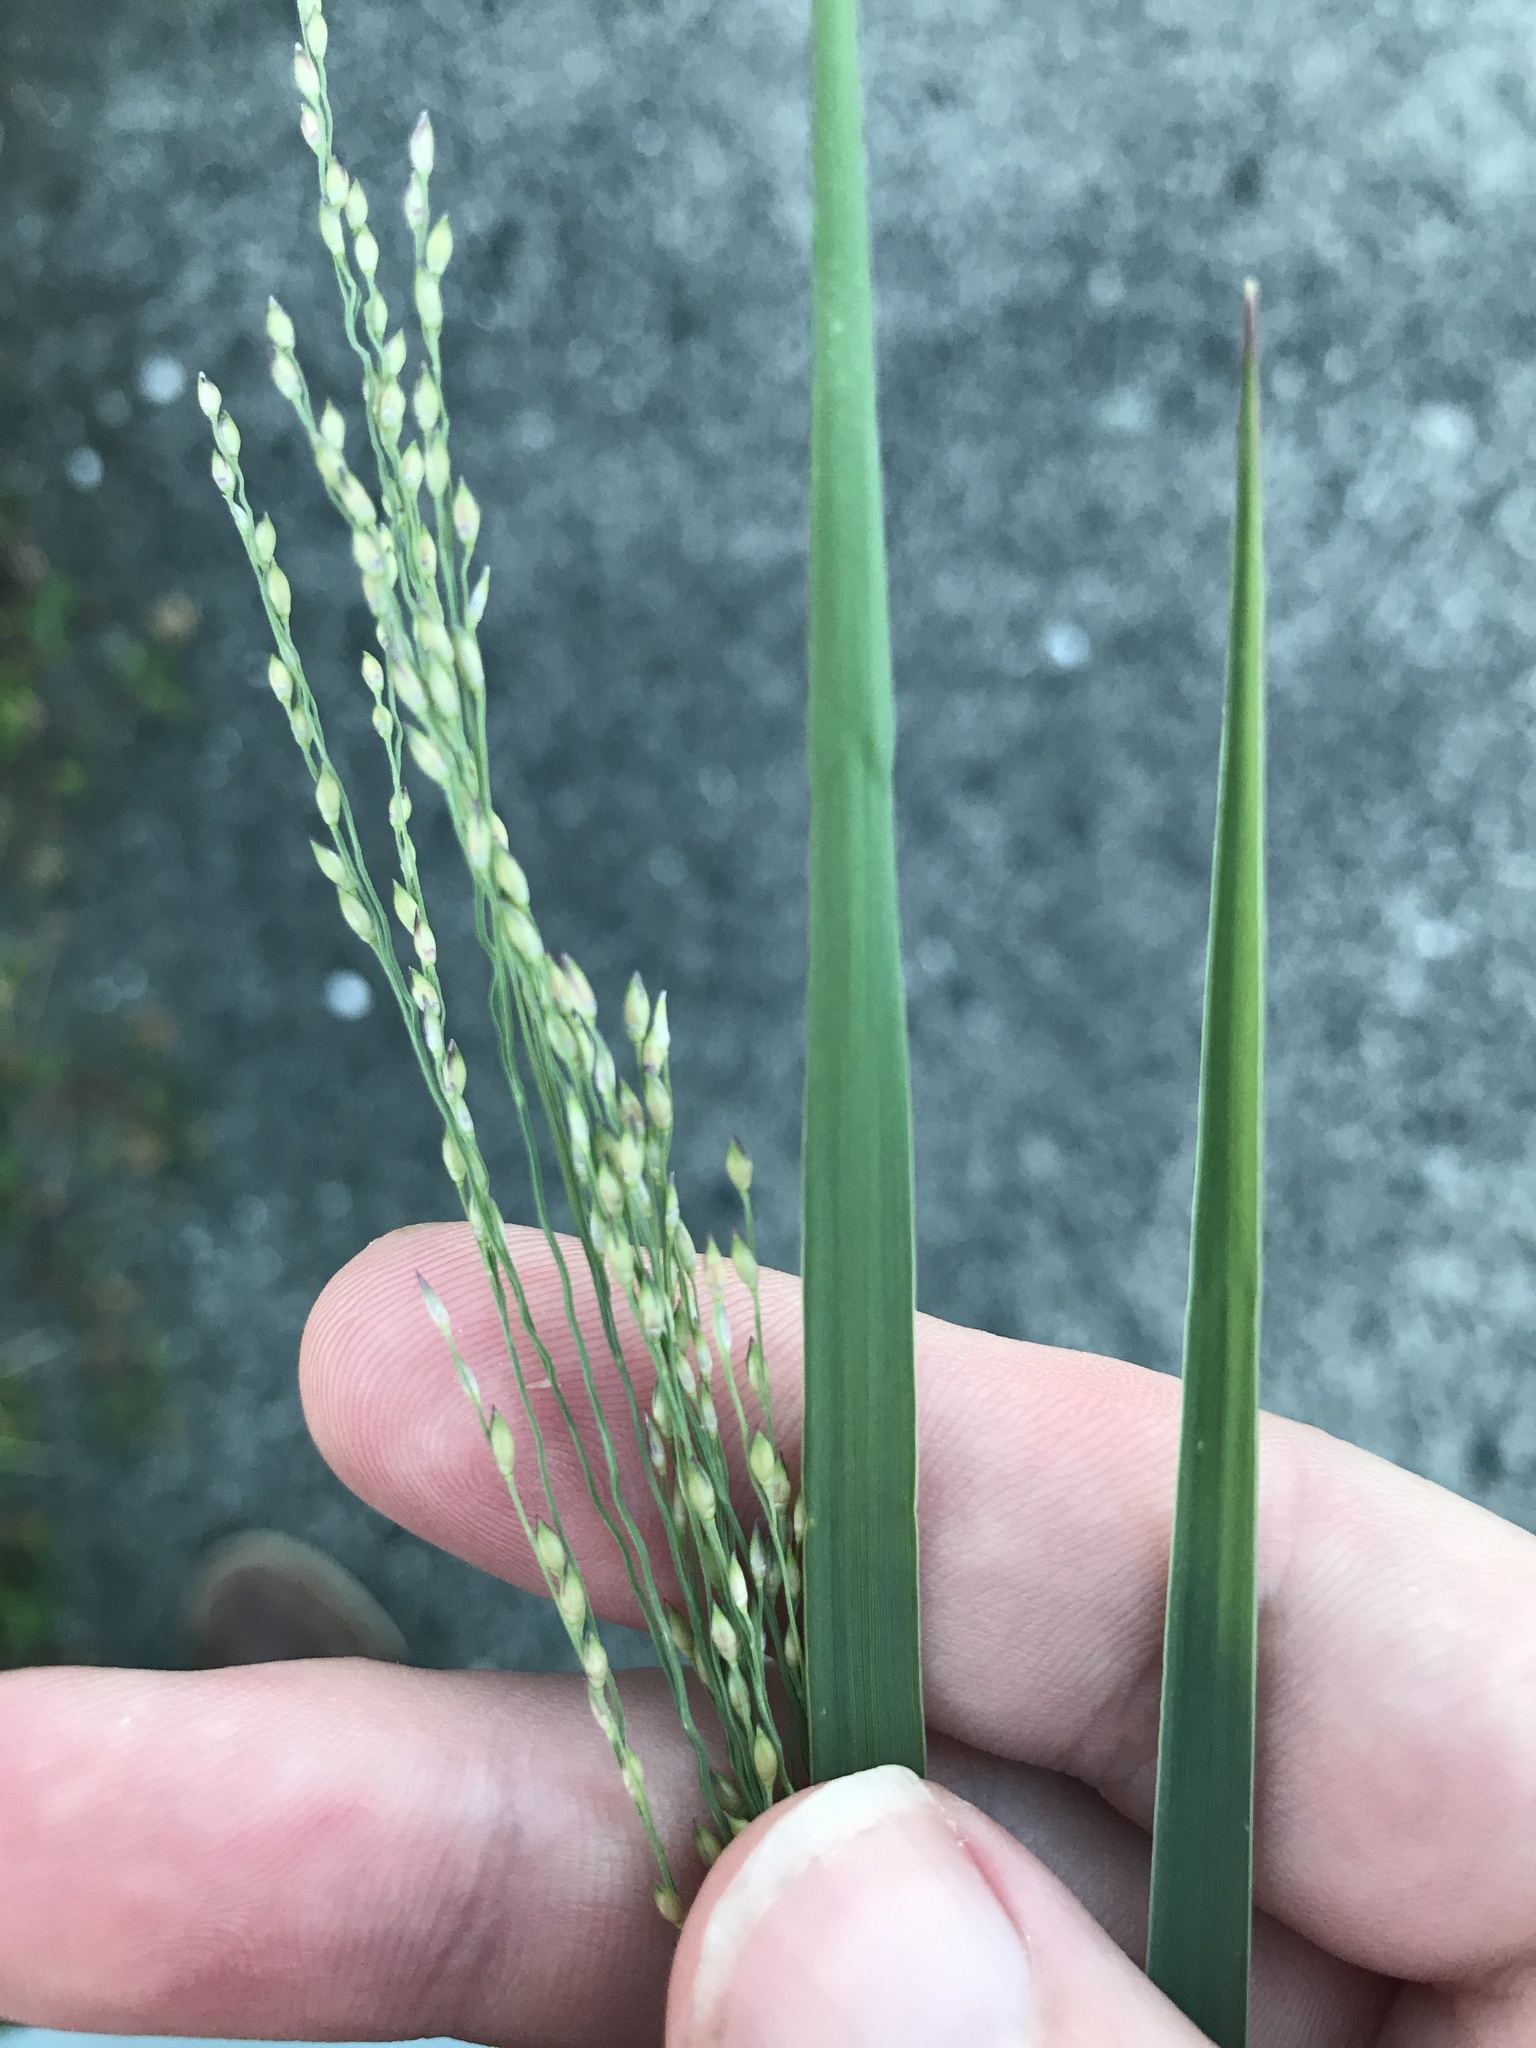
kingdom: Plantae
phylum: Tracheophyta
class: Liliopsida
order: Poales
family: Poaceae
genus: Panicum
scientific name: Panicum repens
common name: Torpedo grass
